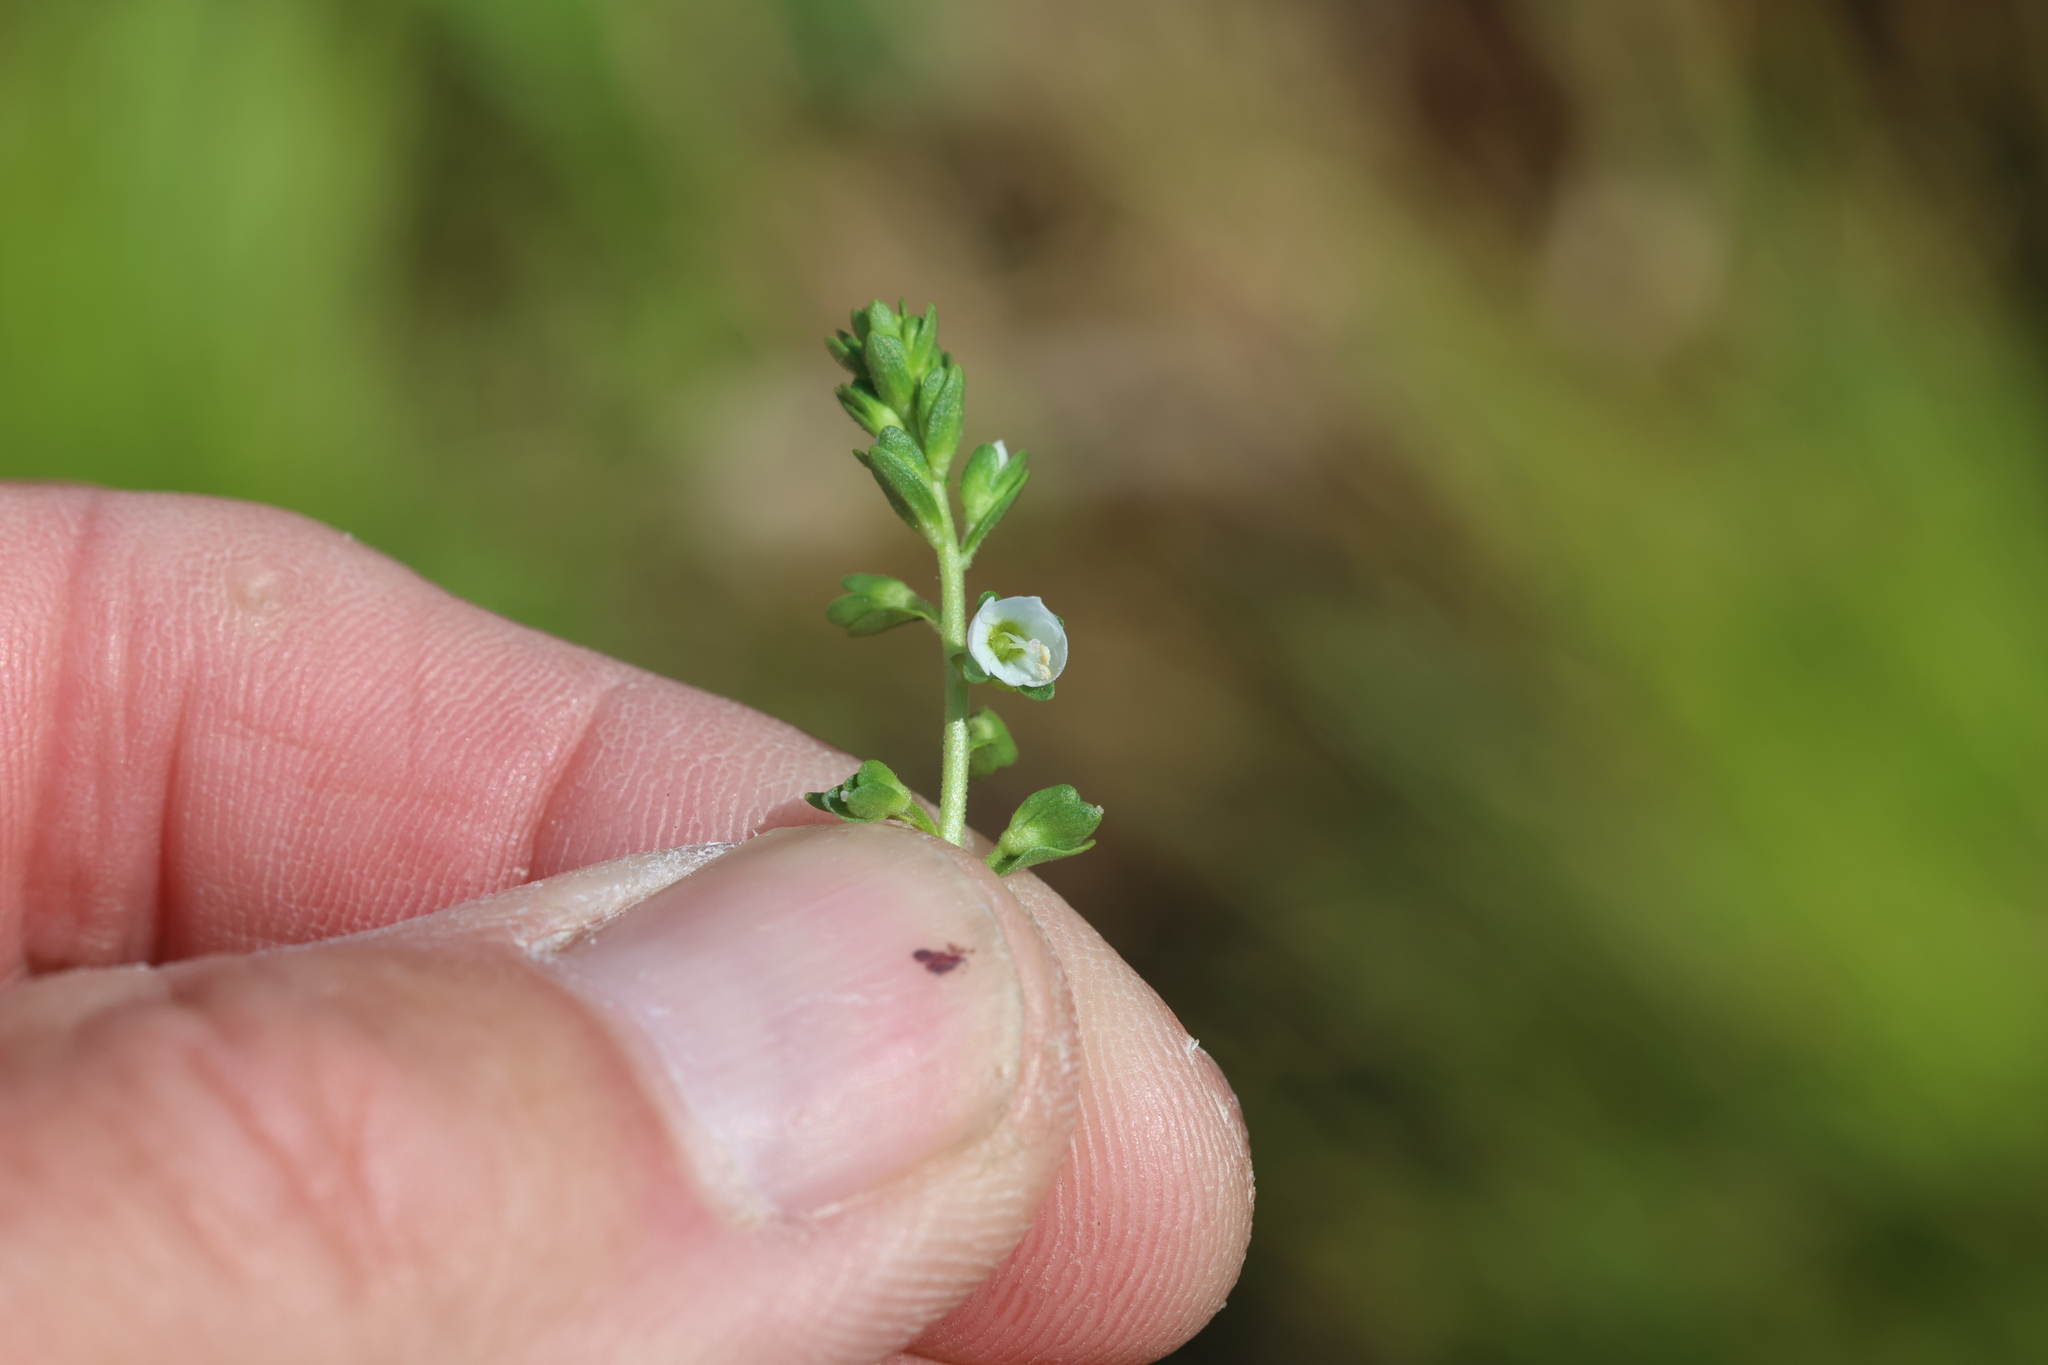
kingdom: Plantae
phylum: Tracheophyta
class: Magnoliopsida
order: Lamiales
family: Plantaginaceae
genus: Veronica
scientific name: Veronica serpyllifolia
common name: Thyme-leaved speedwell
